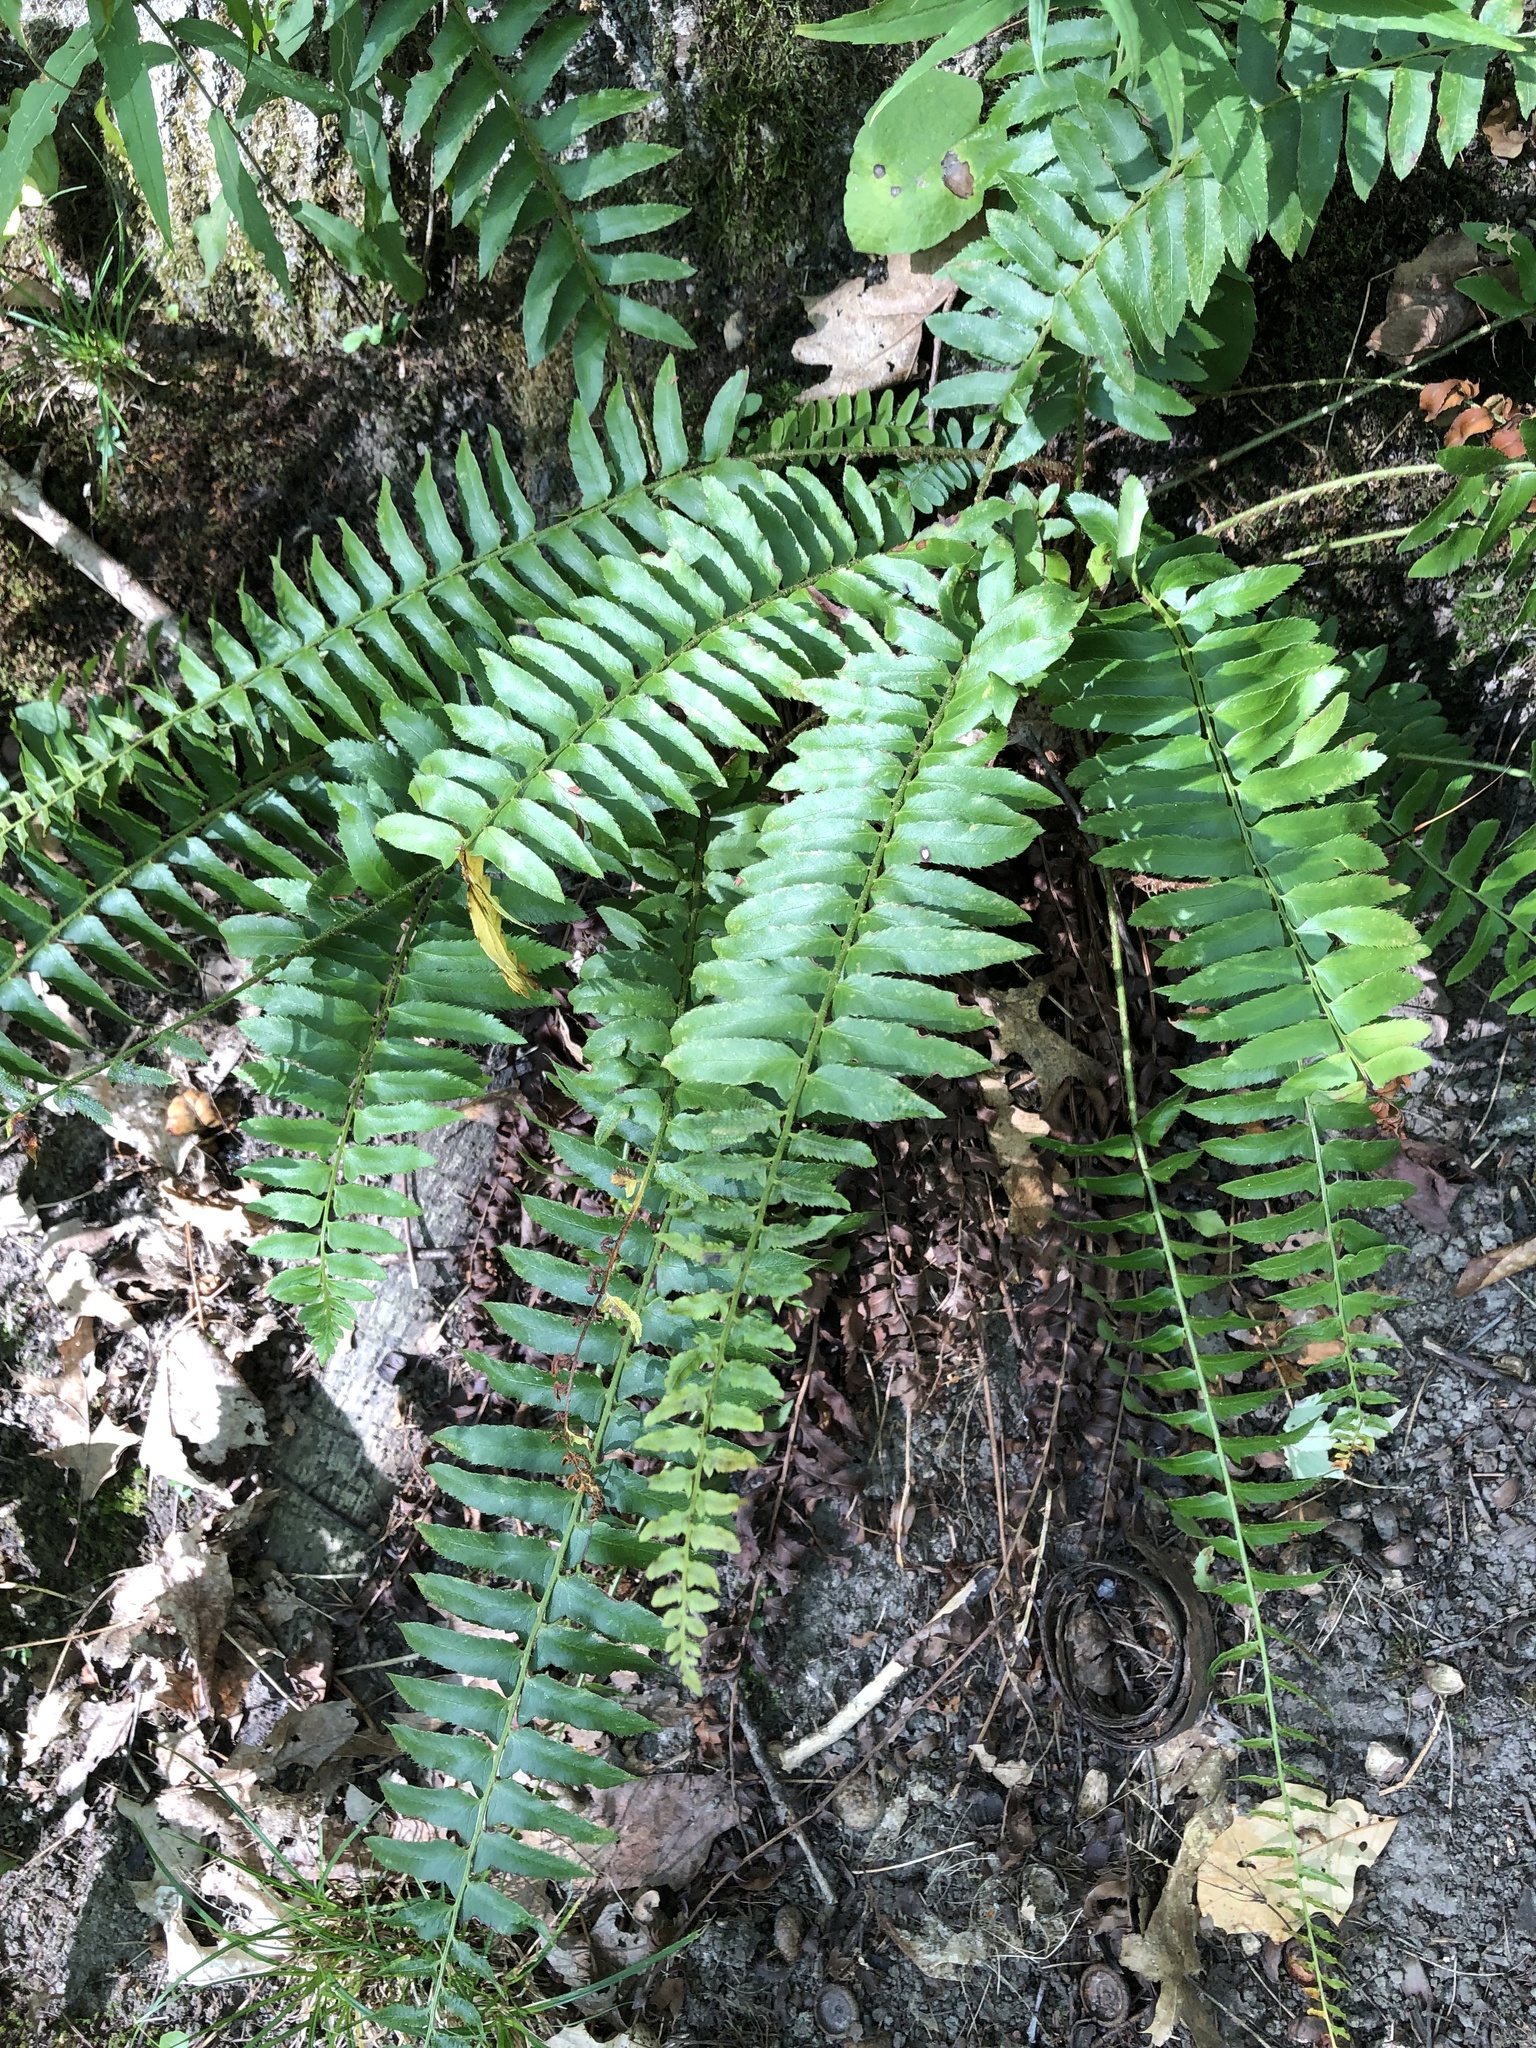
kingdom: Plantae
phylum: Tracheophyta
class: Polypodiopsida
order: Polypodiales
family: Dryopteridaceae
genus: Polystichum
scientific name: Polystichum acrostichoides
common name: Christmas fern
